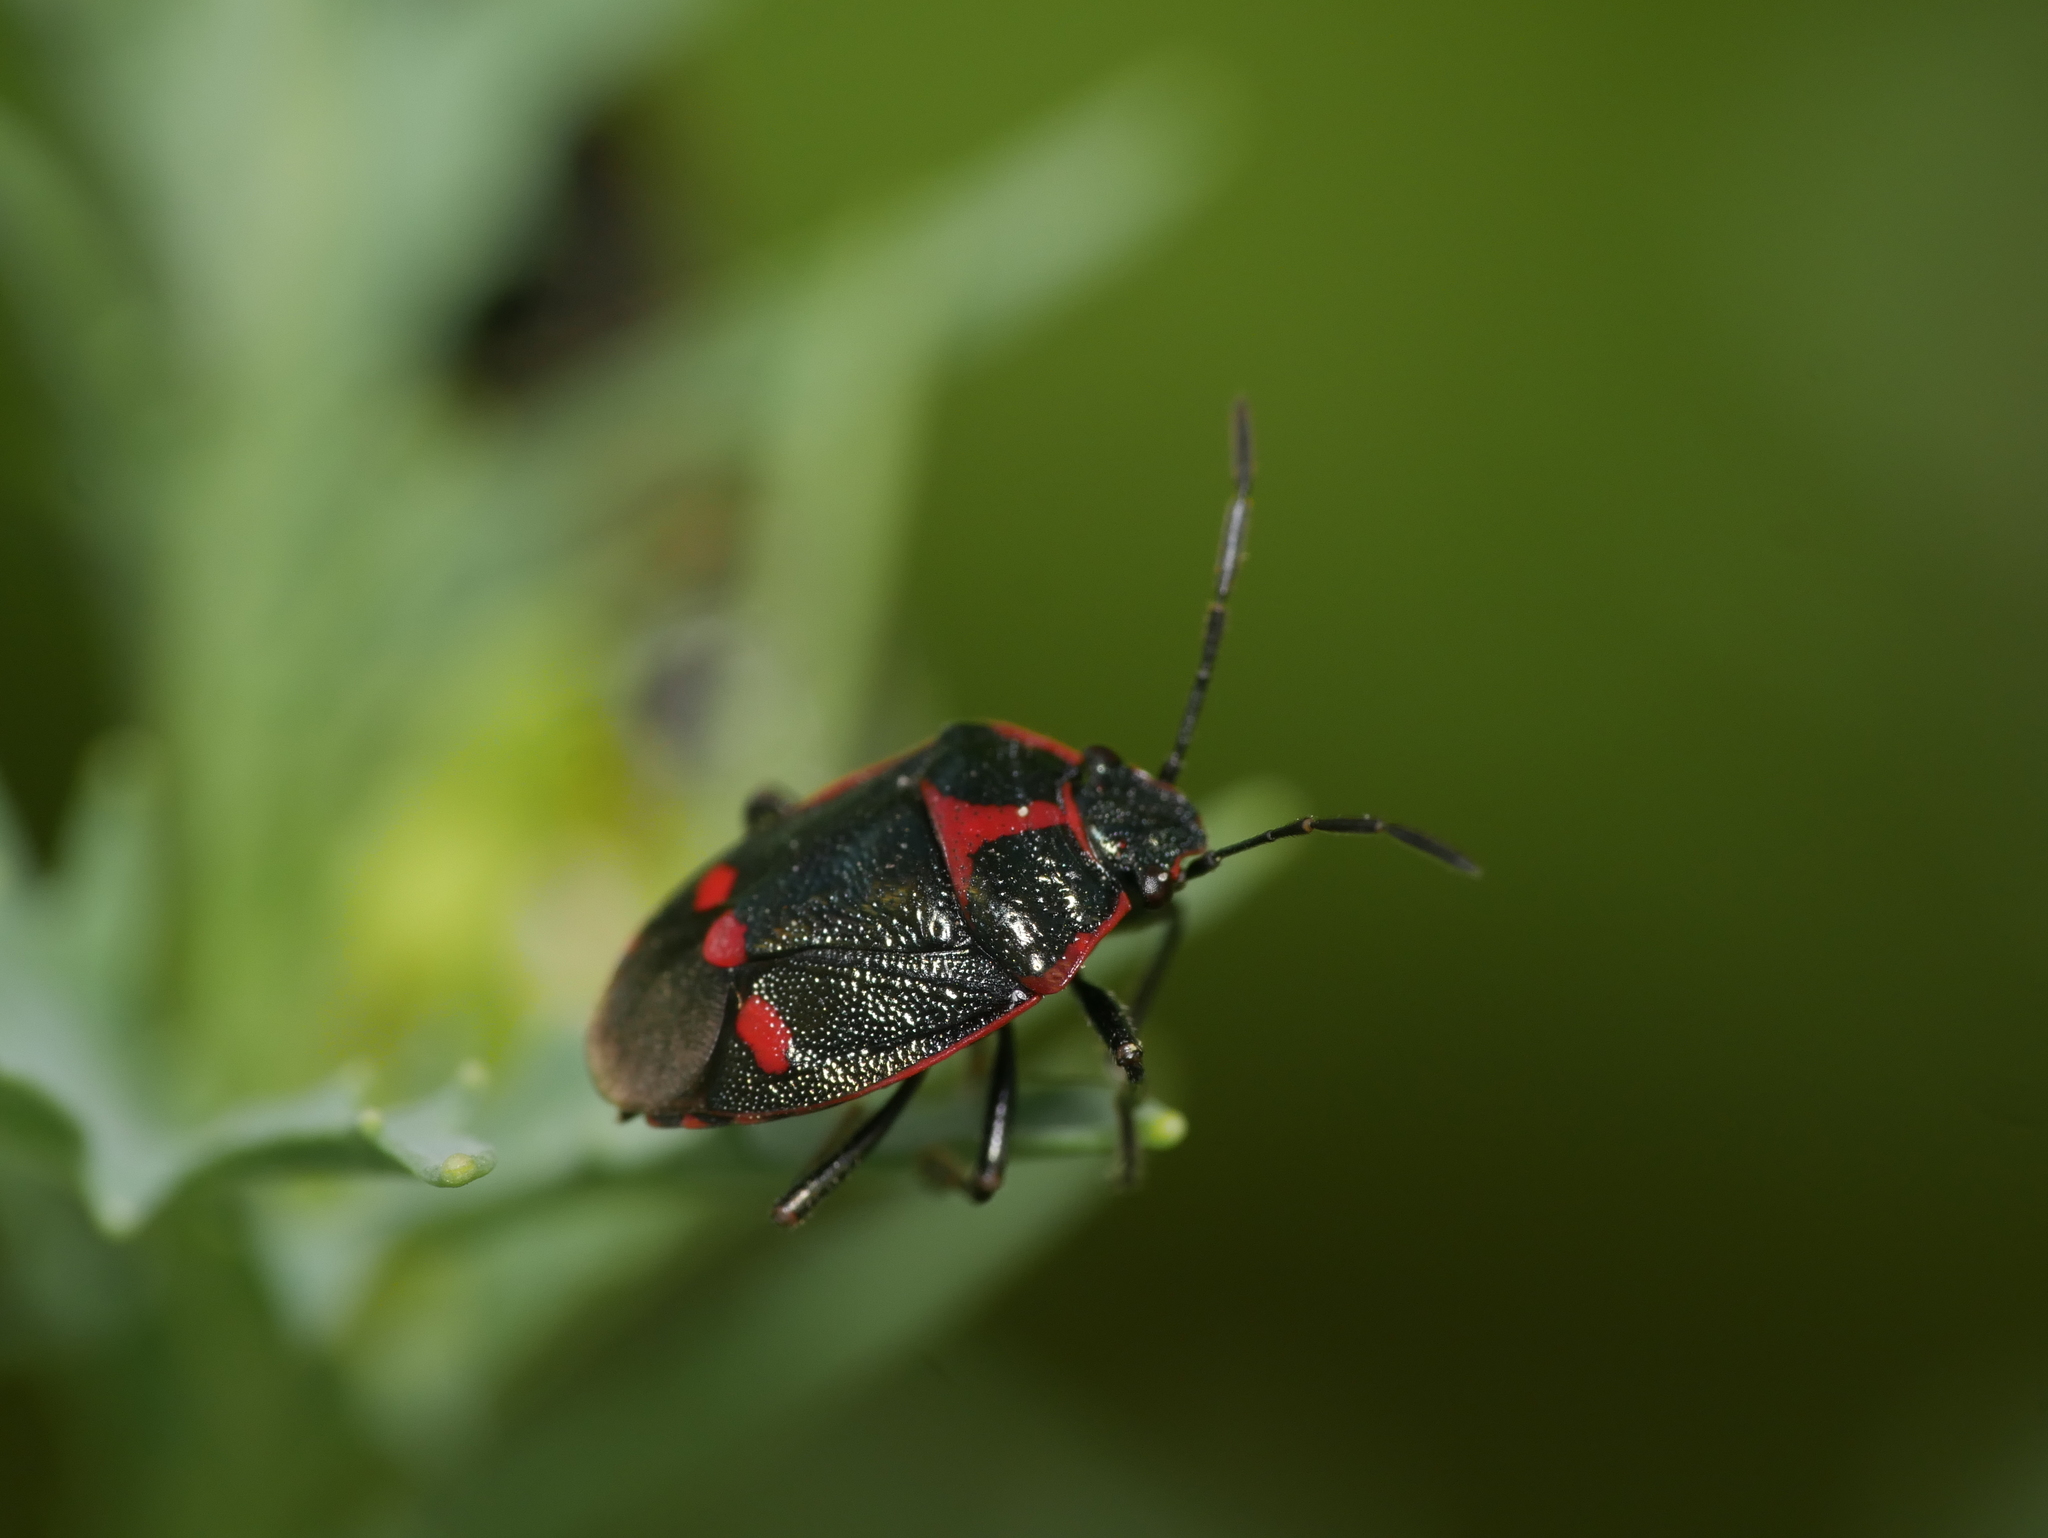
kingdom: Animalia
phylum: Arthropoda
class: Insecta
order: Hemiptera
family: Pentatomidae
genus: Eurydema
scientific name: Eurydema oleracea
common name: Cabbage bug
